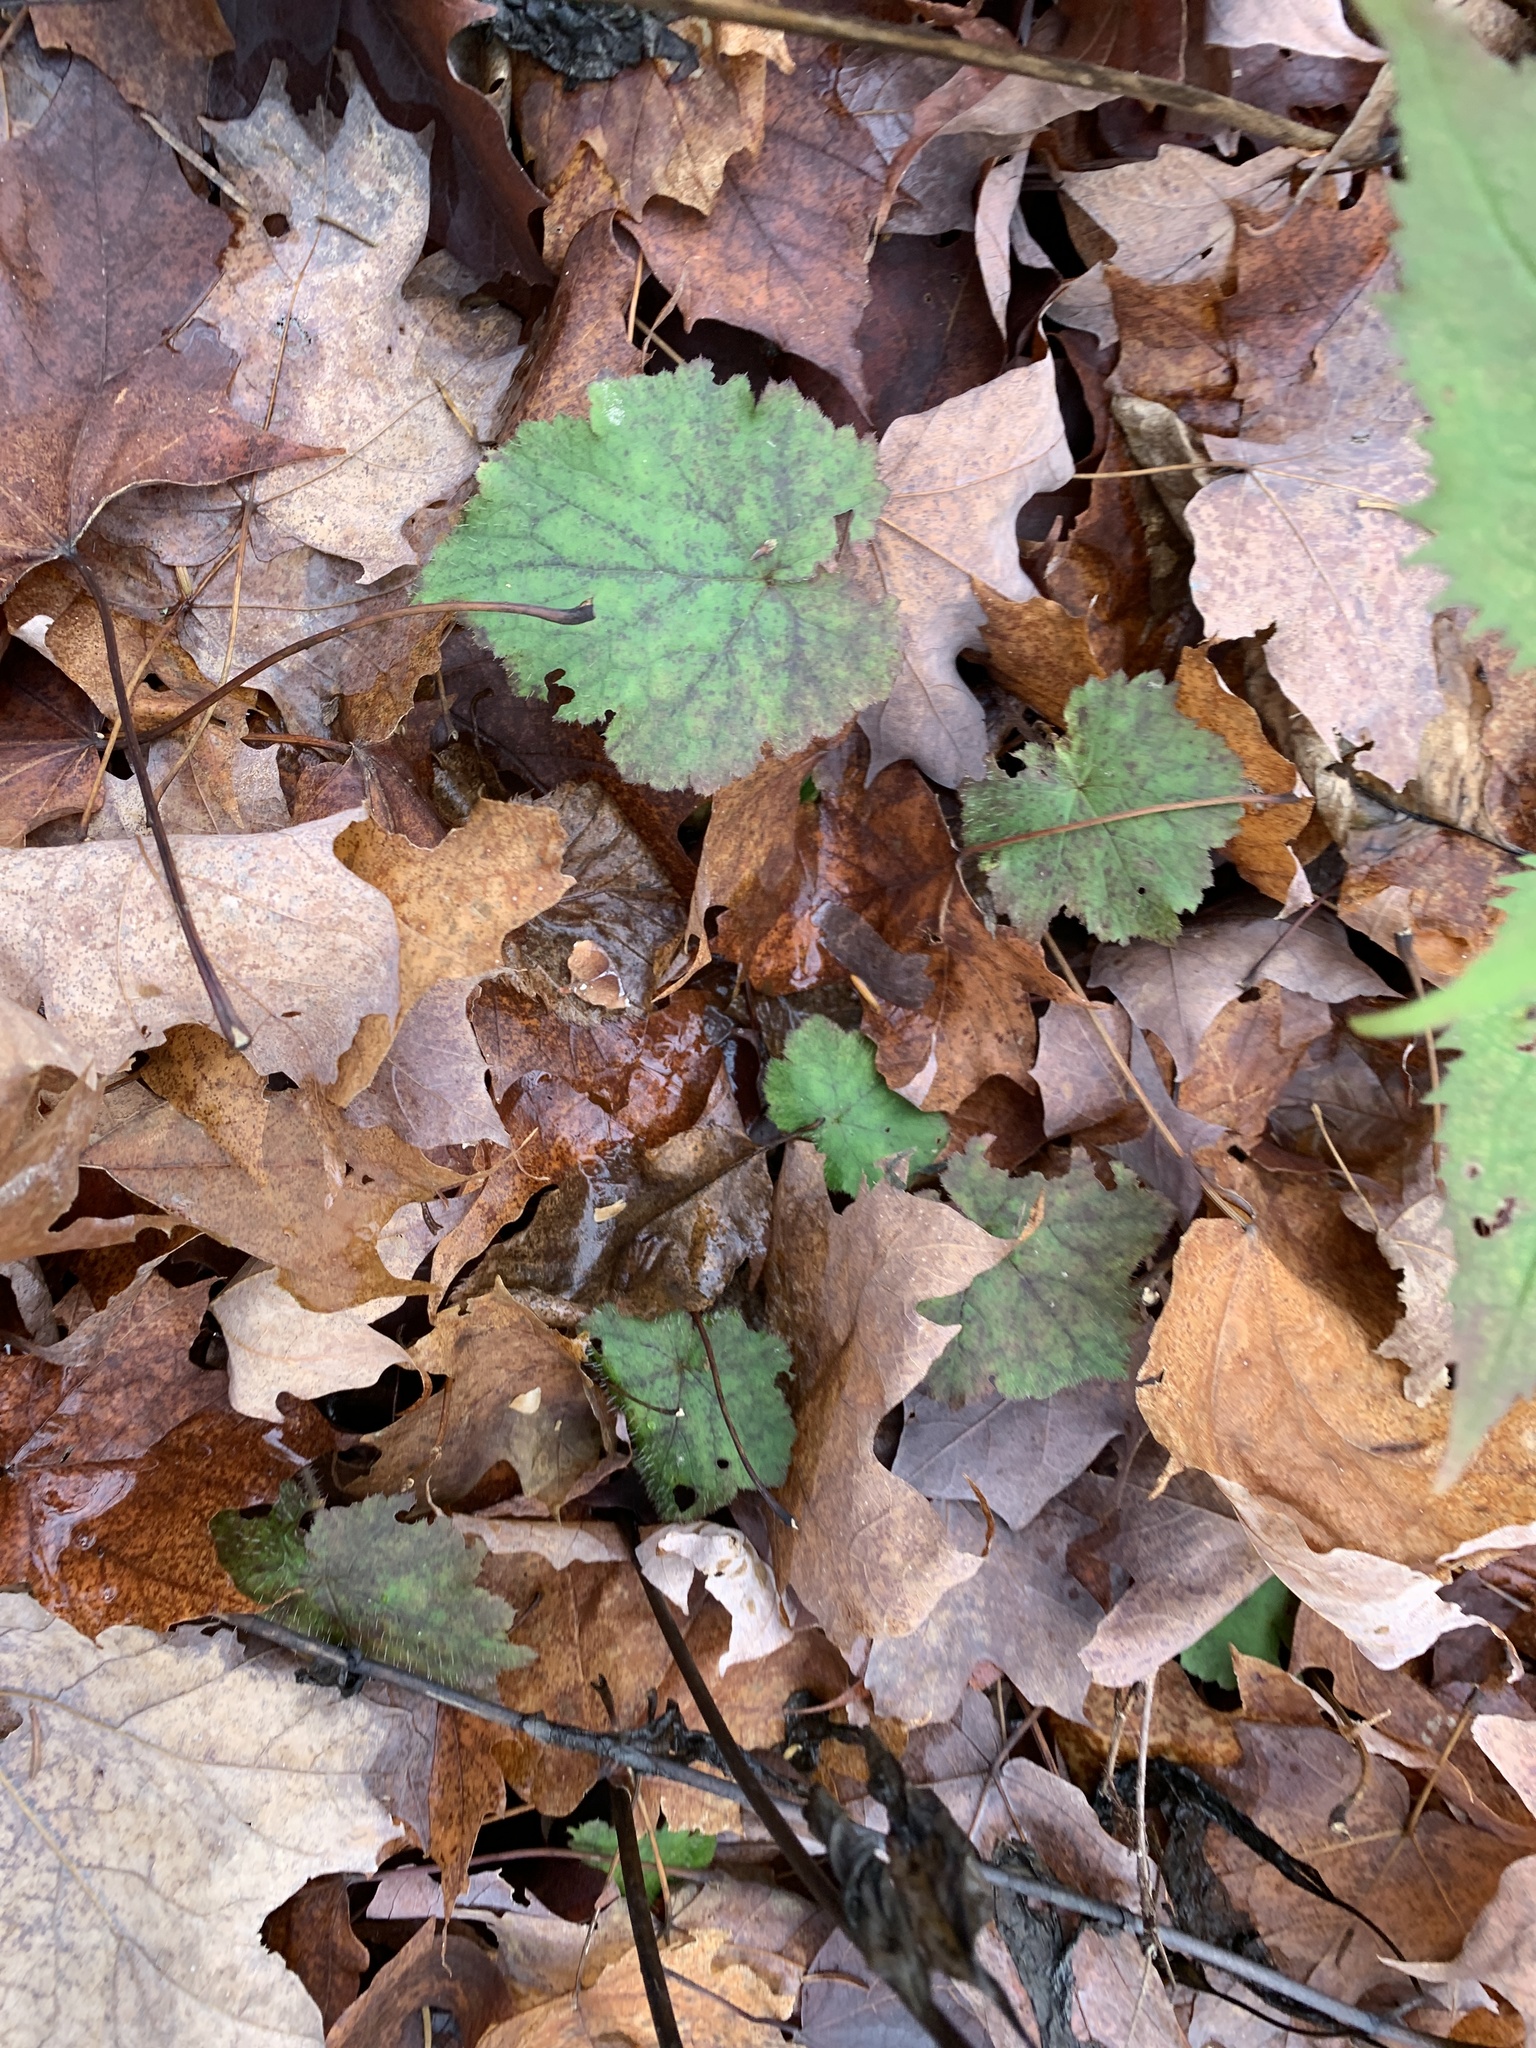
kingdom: Plantae
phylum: Tracheophyta
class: Magnoliopsida
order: Saxifragales
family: Saxifragaceae
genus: Tiarella
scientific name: Tiarella stolonifera
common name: Stoloniferous foamflower
